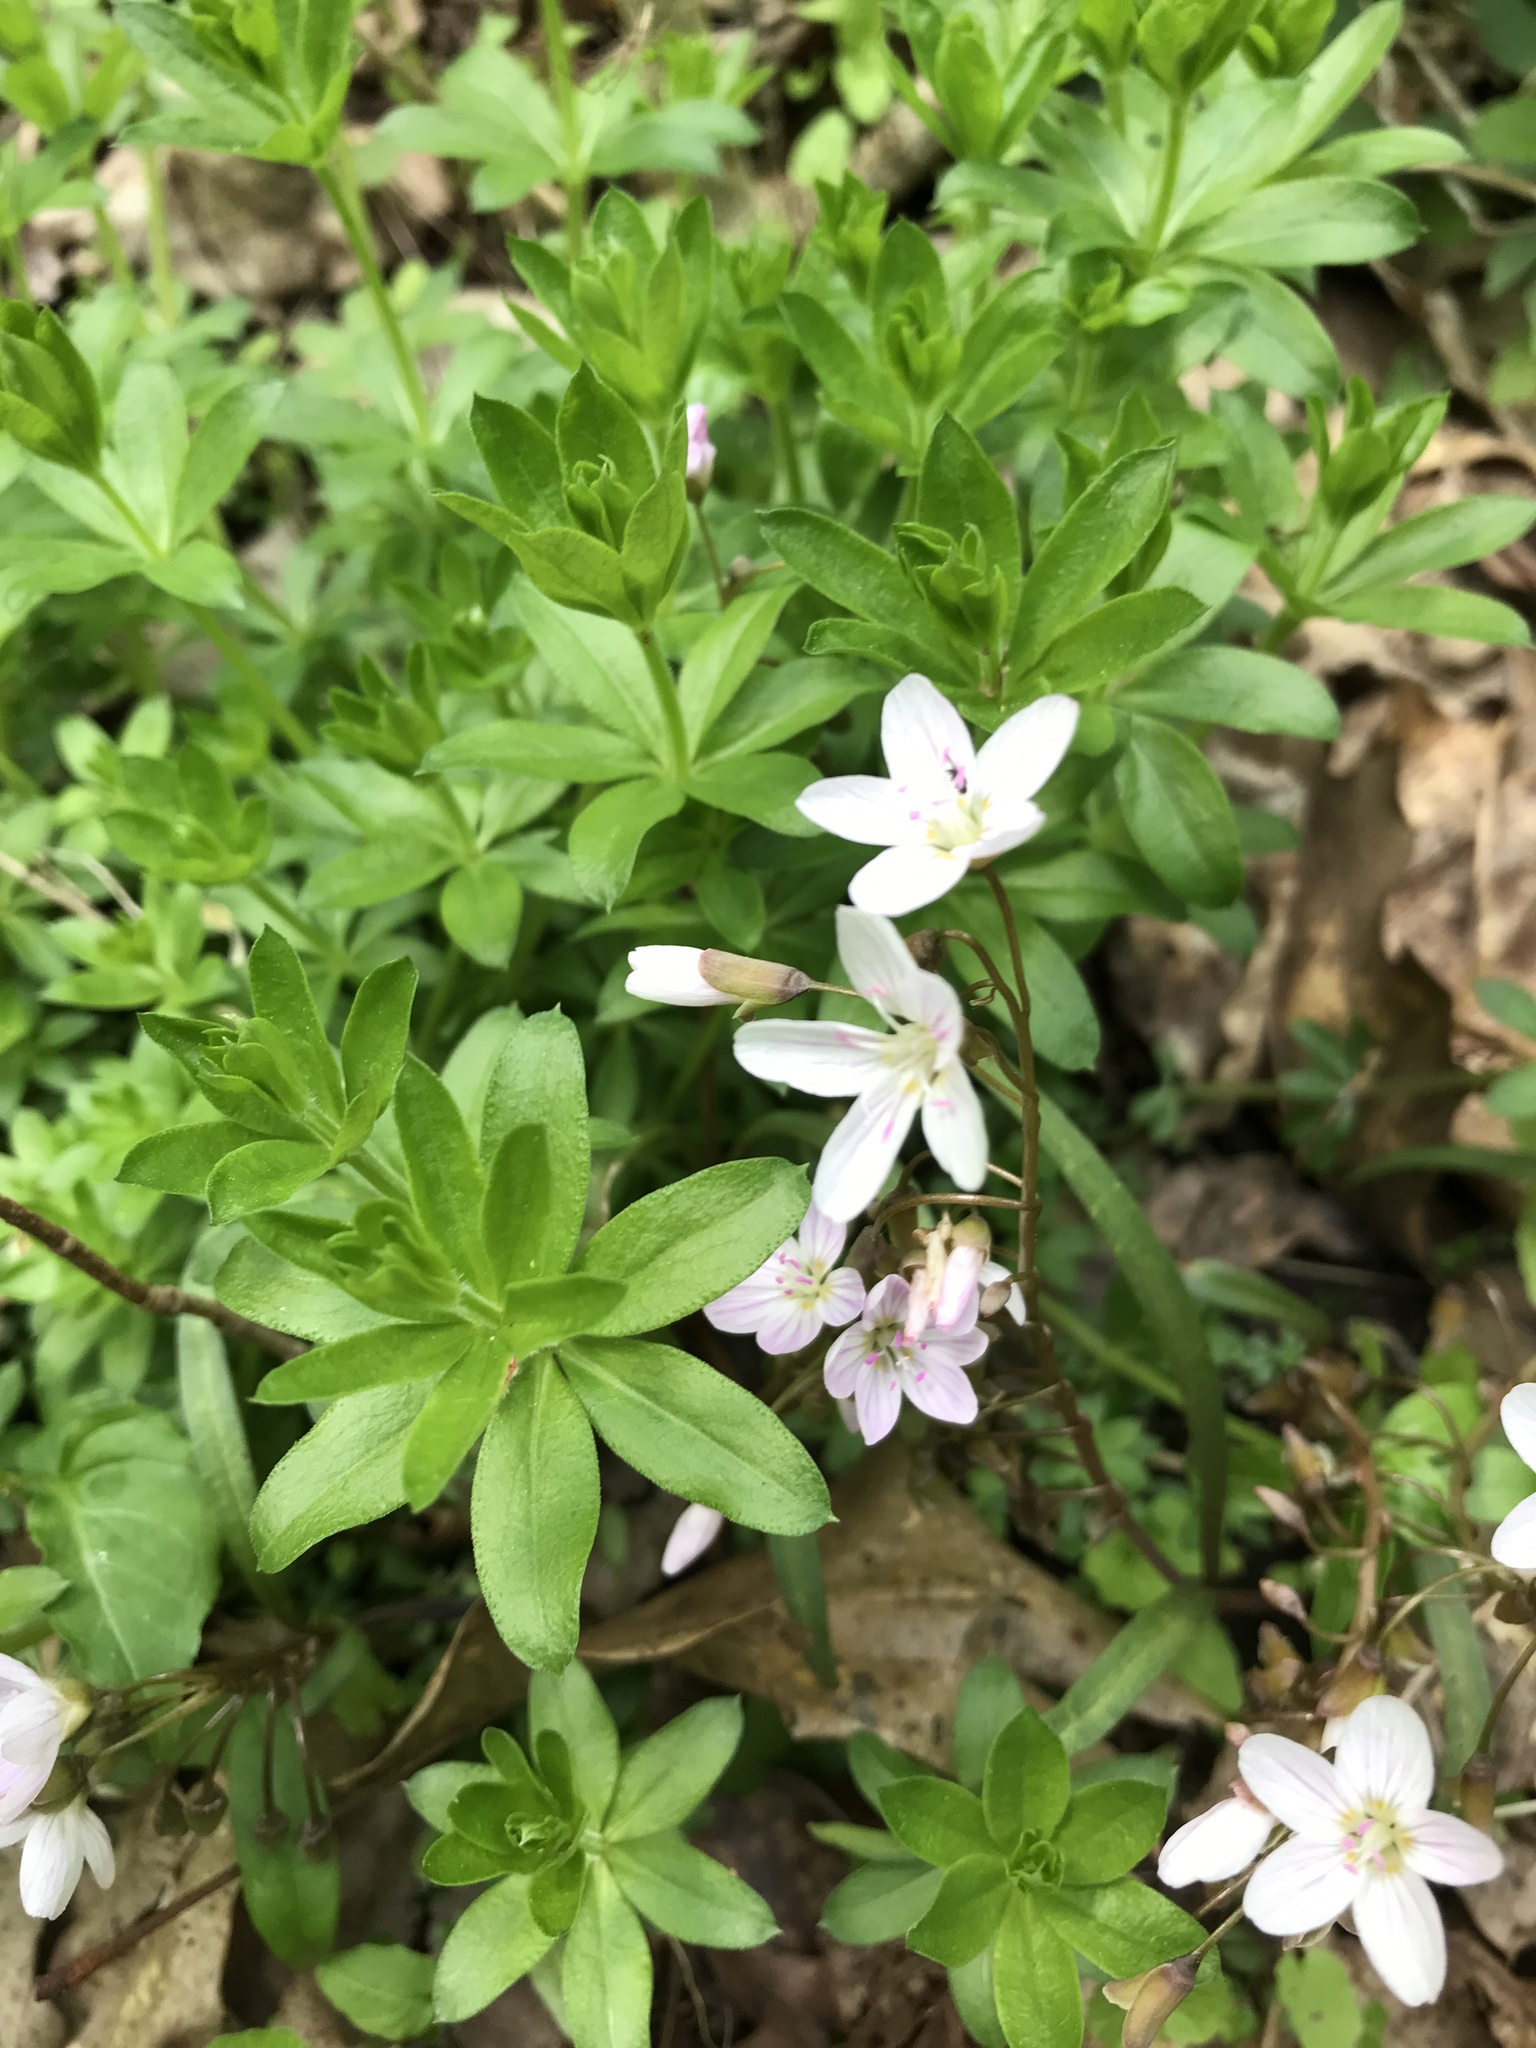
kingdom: Plantae
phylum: Tracheophyta
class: Magnoliopsida
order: Caryophyllales
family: Montiaceae
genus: Claytonia
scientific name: Claytonia virginica
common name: Virginia springbeauty
